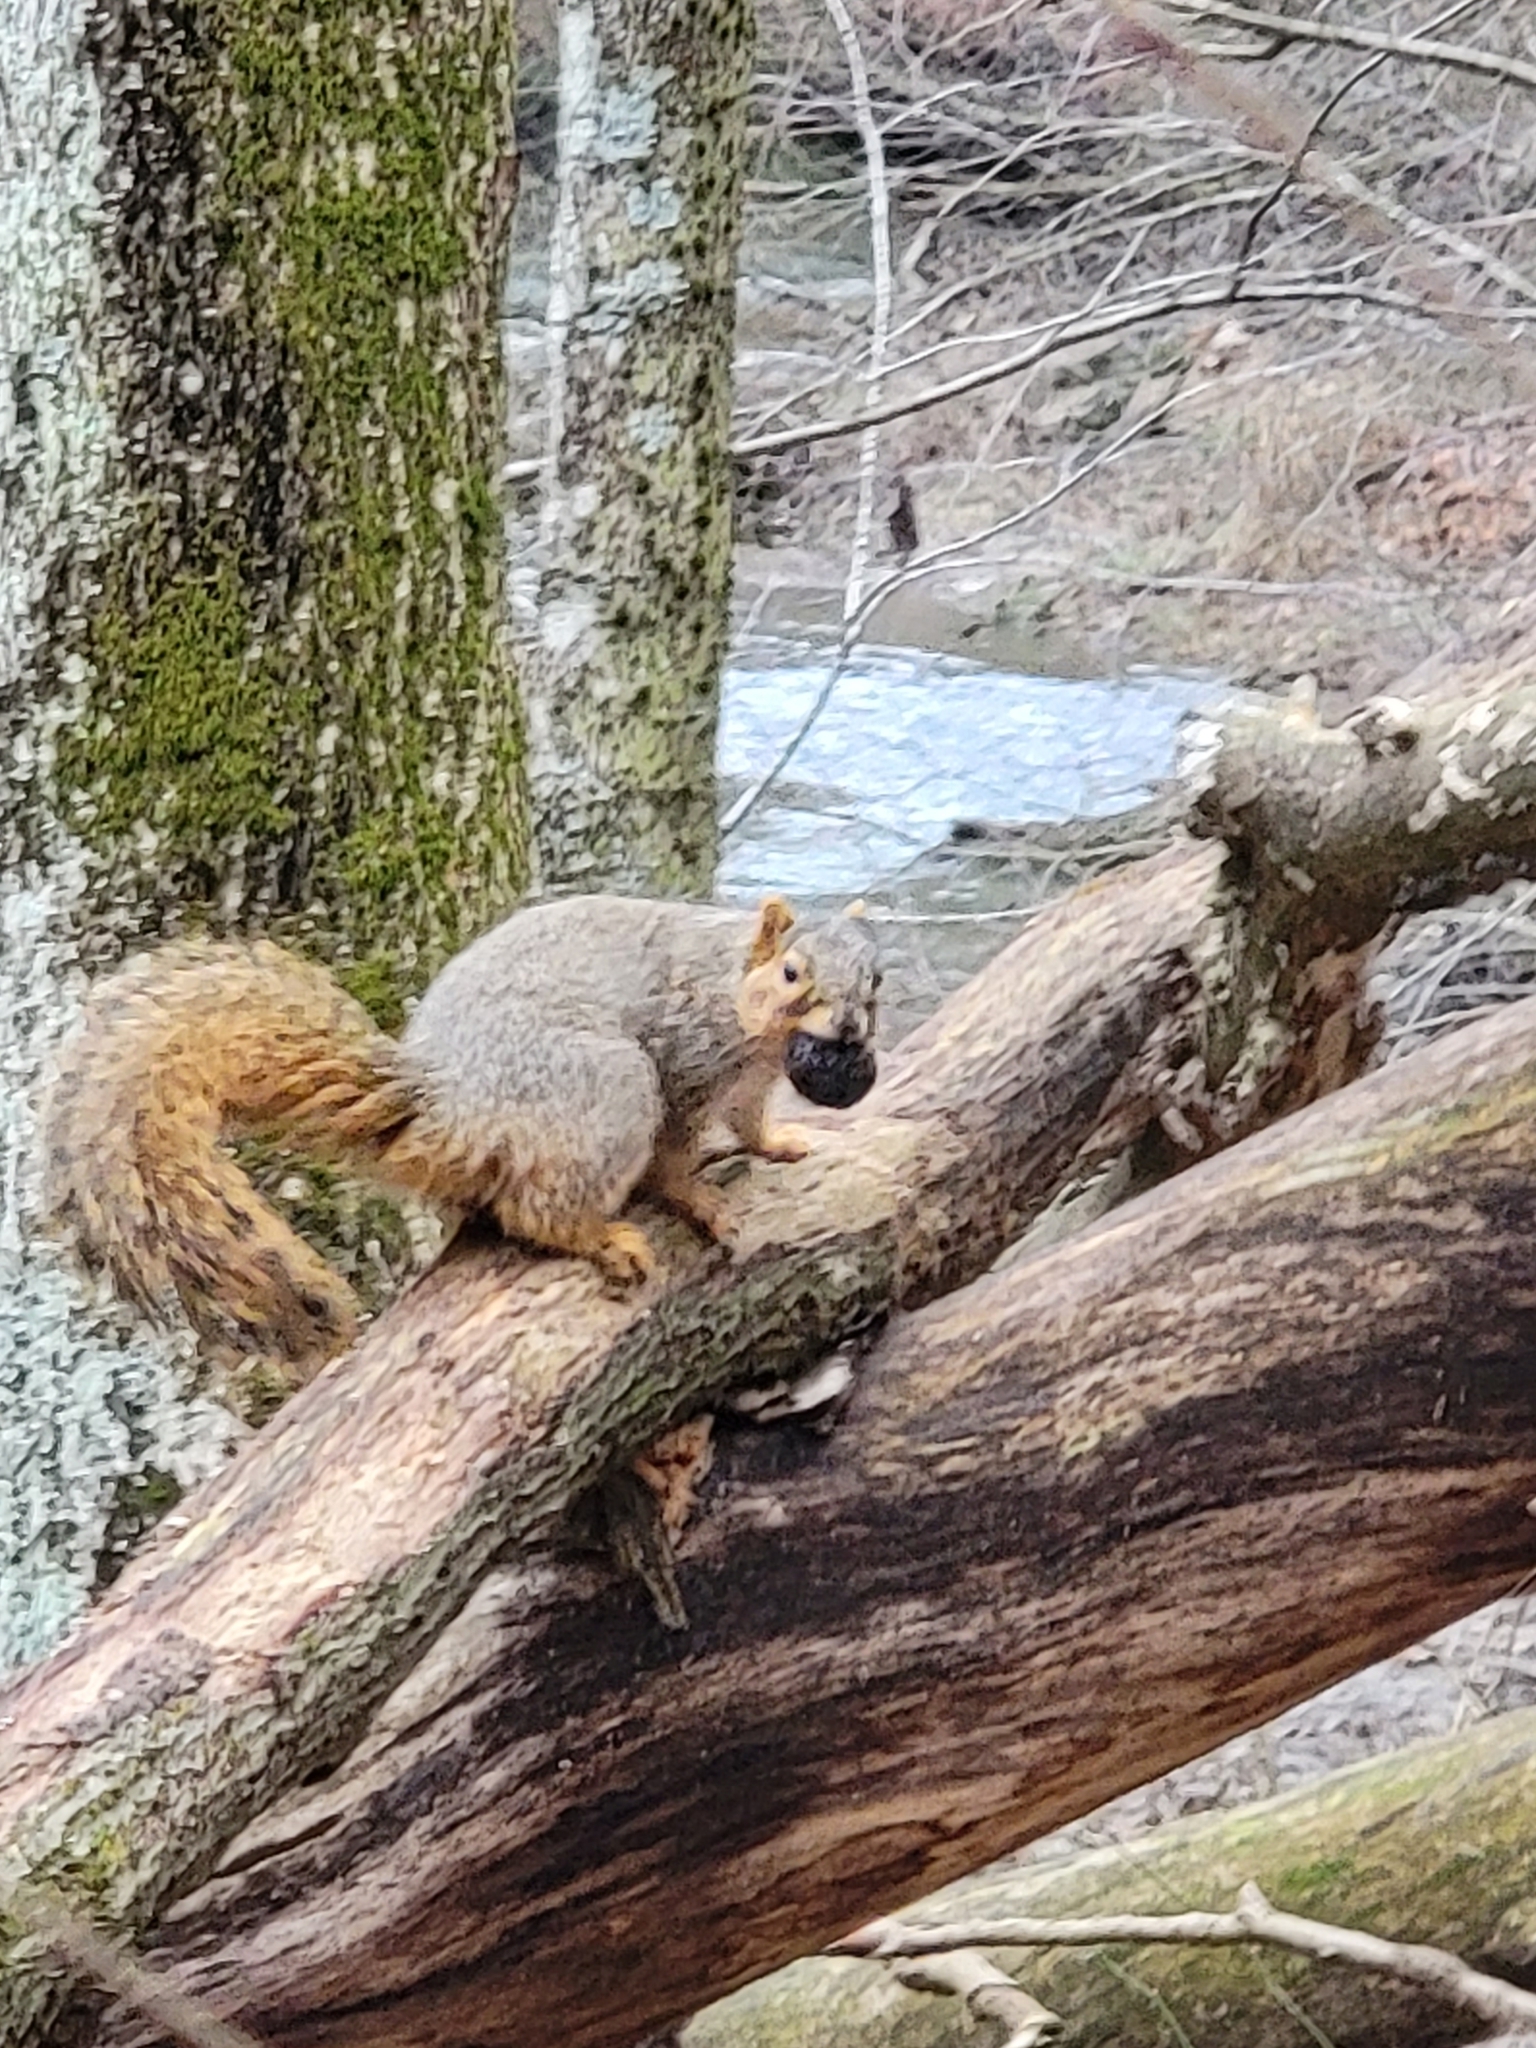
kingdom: Animalia
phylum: Chordata
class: Mammalia
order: Rodentia
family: Sciuridae
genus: Sciurus
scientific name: Sciurus niger
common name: Fox squirrel
